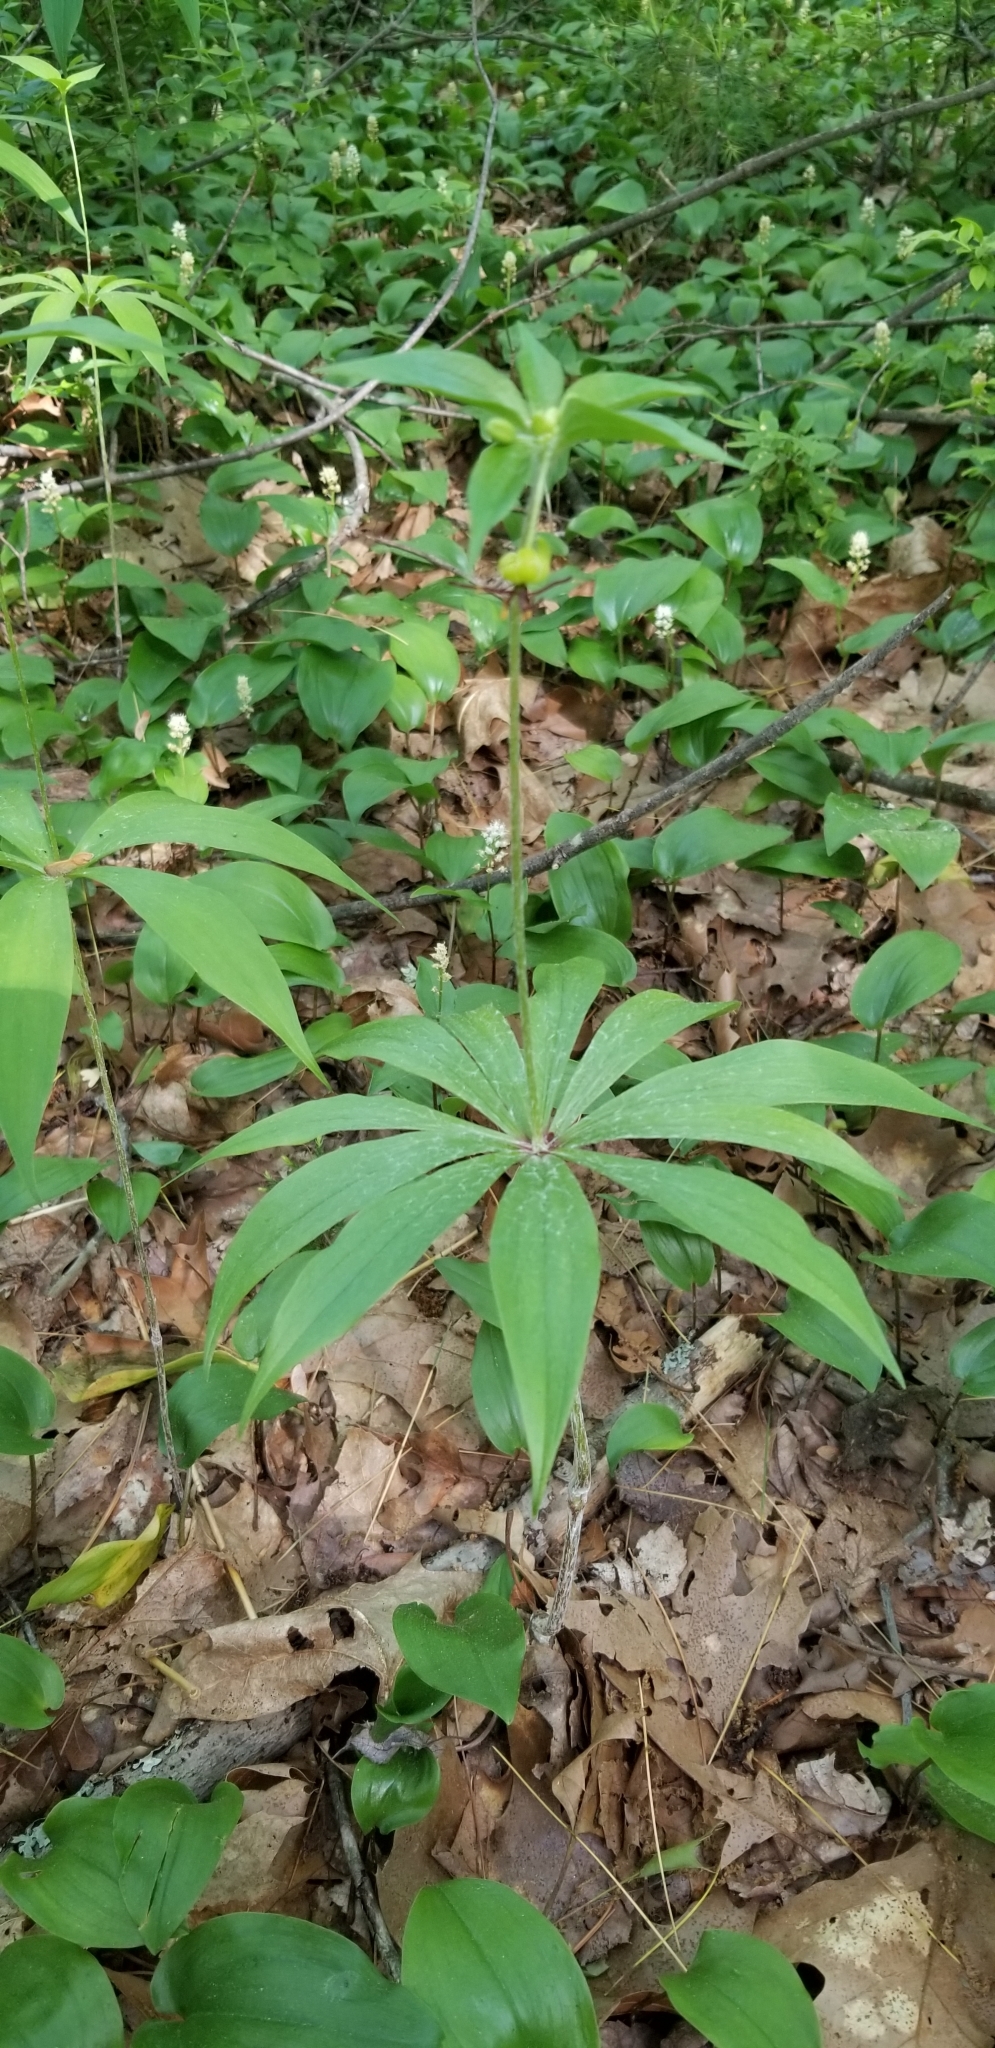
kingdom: Plantae
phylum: Tracheophyta
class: Liliopsida
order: Liliales
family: Liliaceae
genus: Medeola
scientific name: Medeola virginiana
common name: Indian cucumber-root
